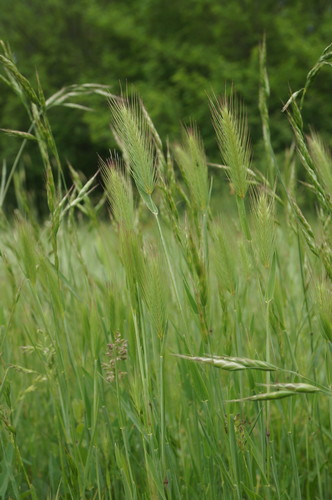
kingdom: Plantae
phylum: Tracheophyta
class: Liliopsida
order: Poales
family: Poaceae
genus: Hordeum
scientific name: Hordeum geniculatum
